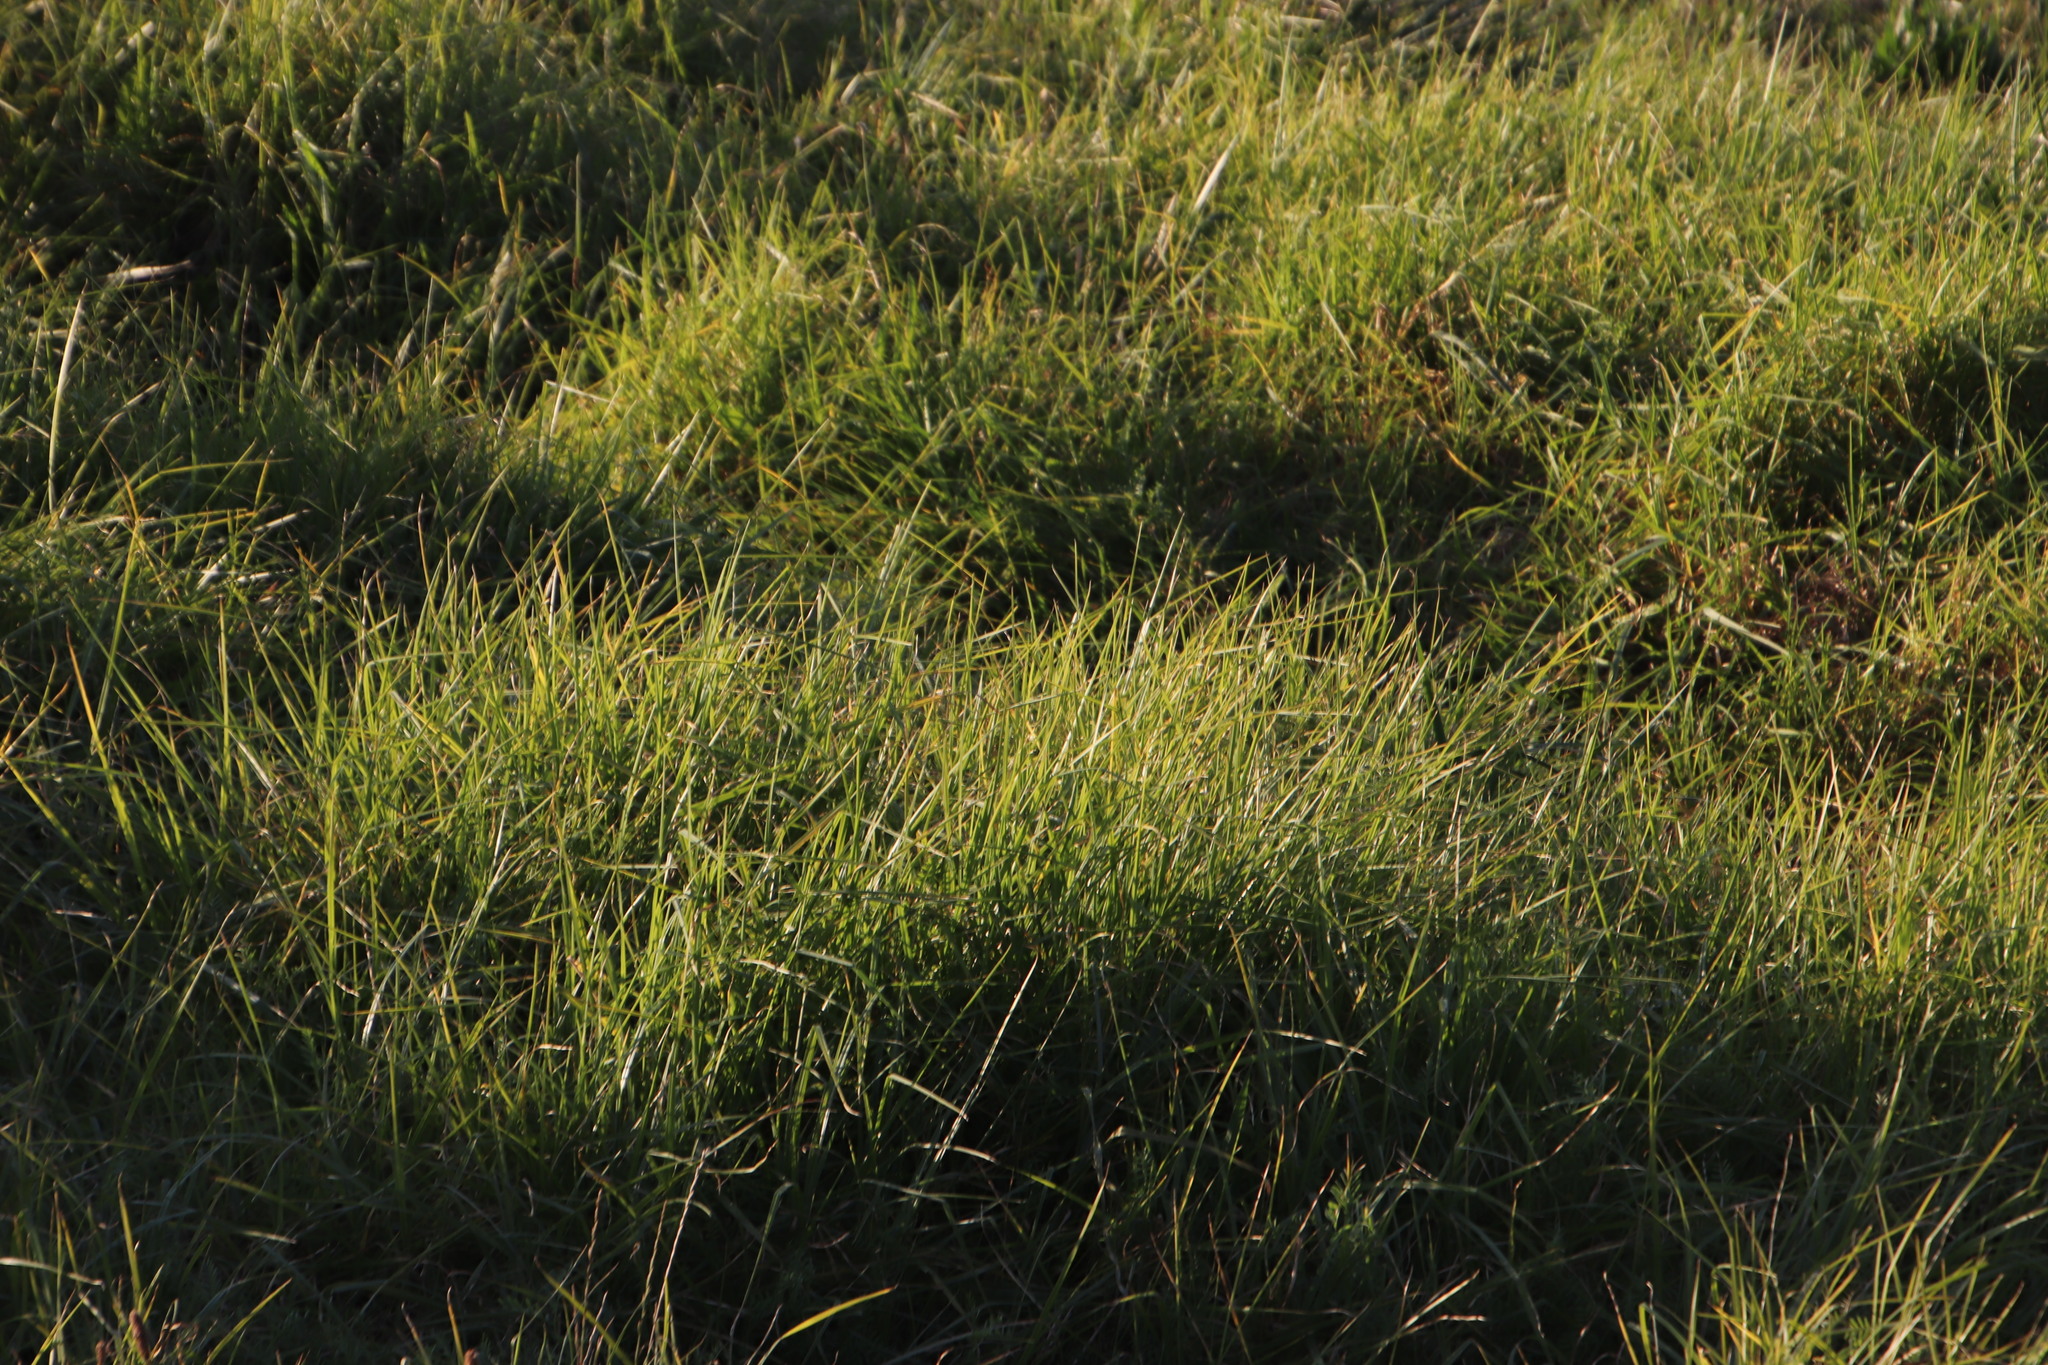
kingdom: Plantae
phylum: Tracheophyta
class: Liliopsida
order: Poales
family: Poaceae
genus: Cenchrus
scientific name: Cenchrus clandestinus
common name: Kikuyugrass
